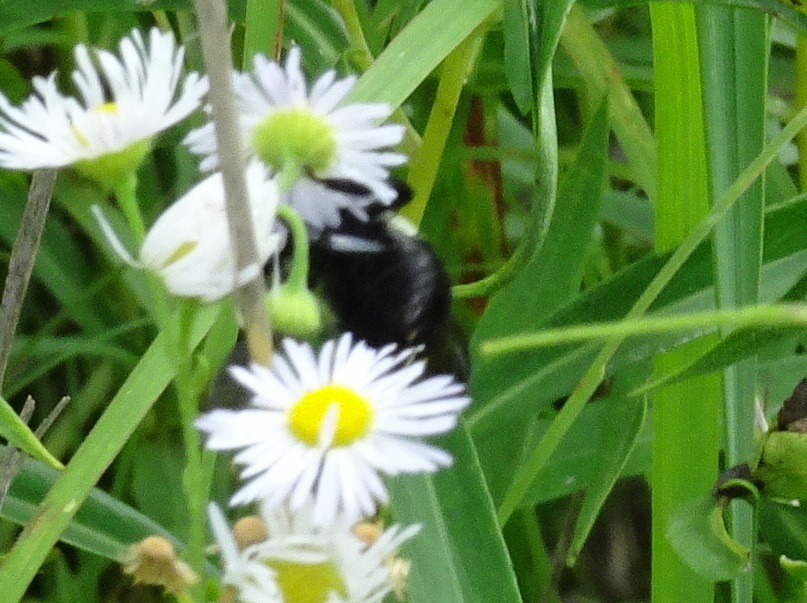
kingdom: Animalia
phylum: Arthropoda
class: Insecta
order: Hymenoptera
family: Apidae
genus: Bombus
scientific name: Bombus griseocollis
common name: Brown-belted bumble bee
